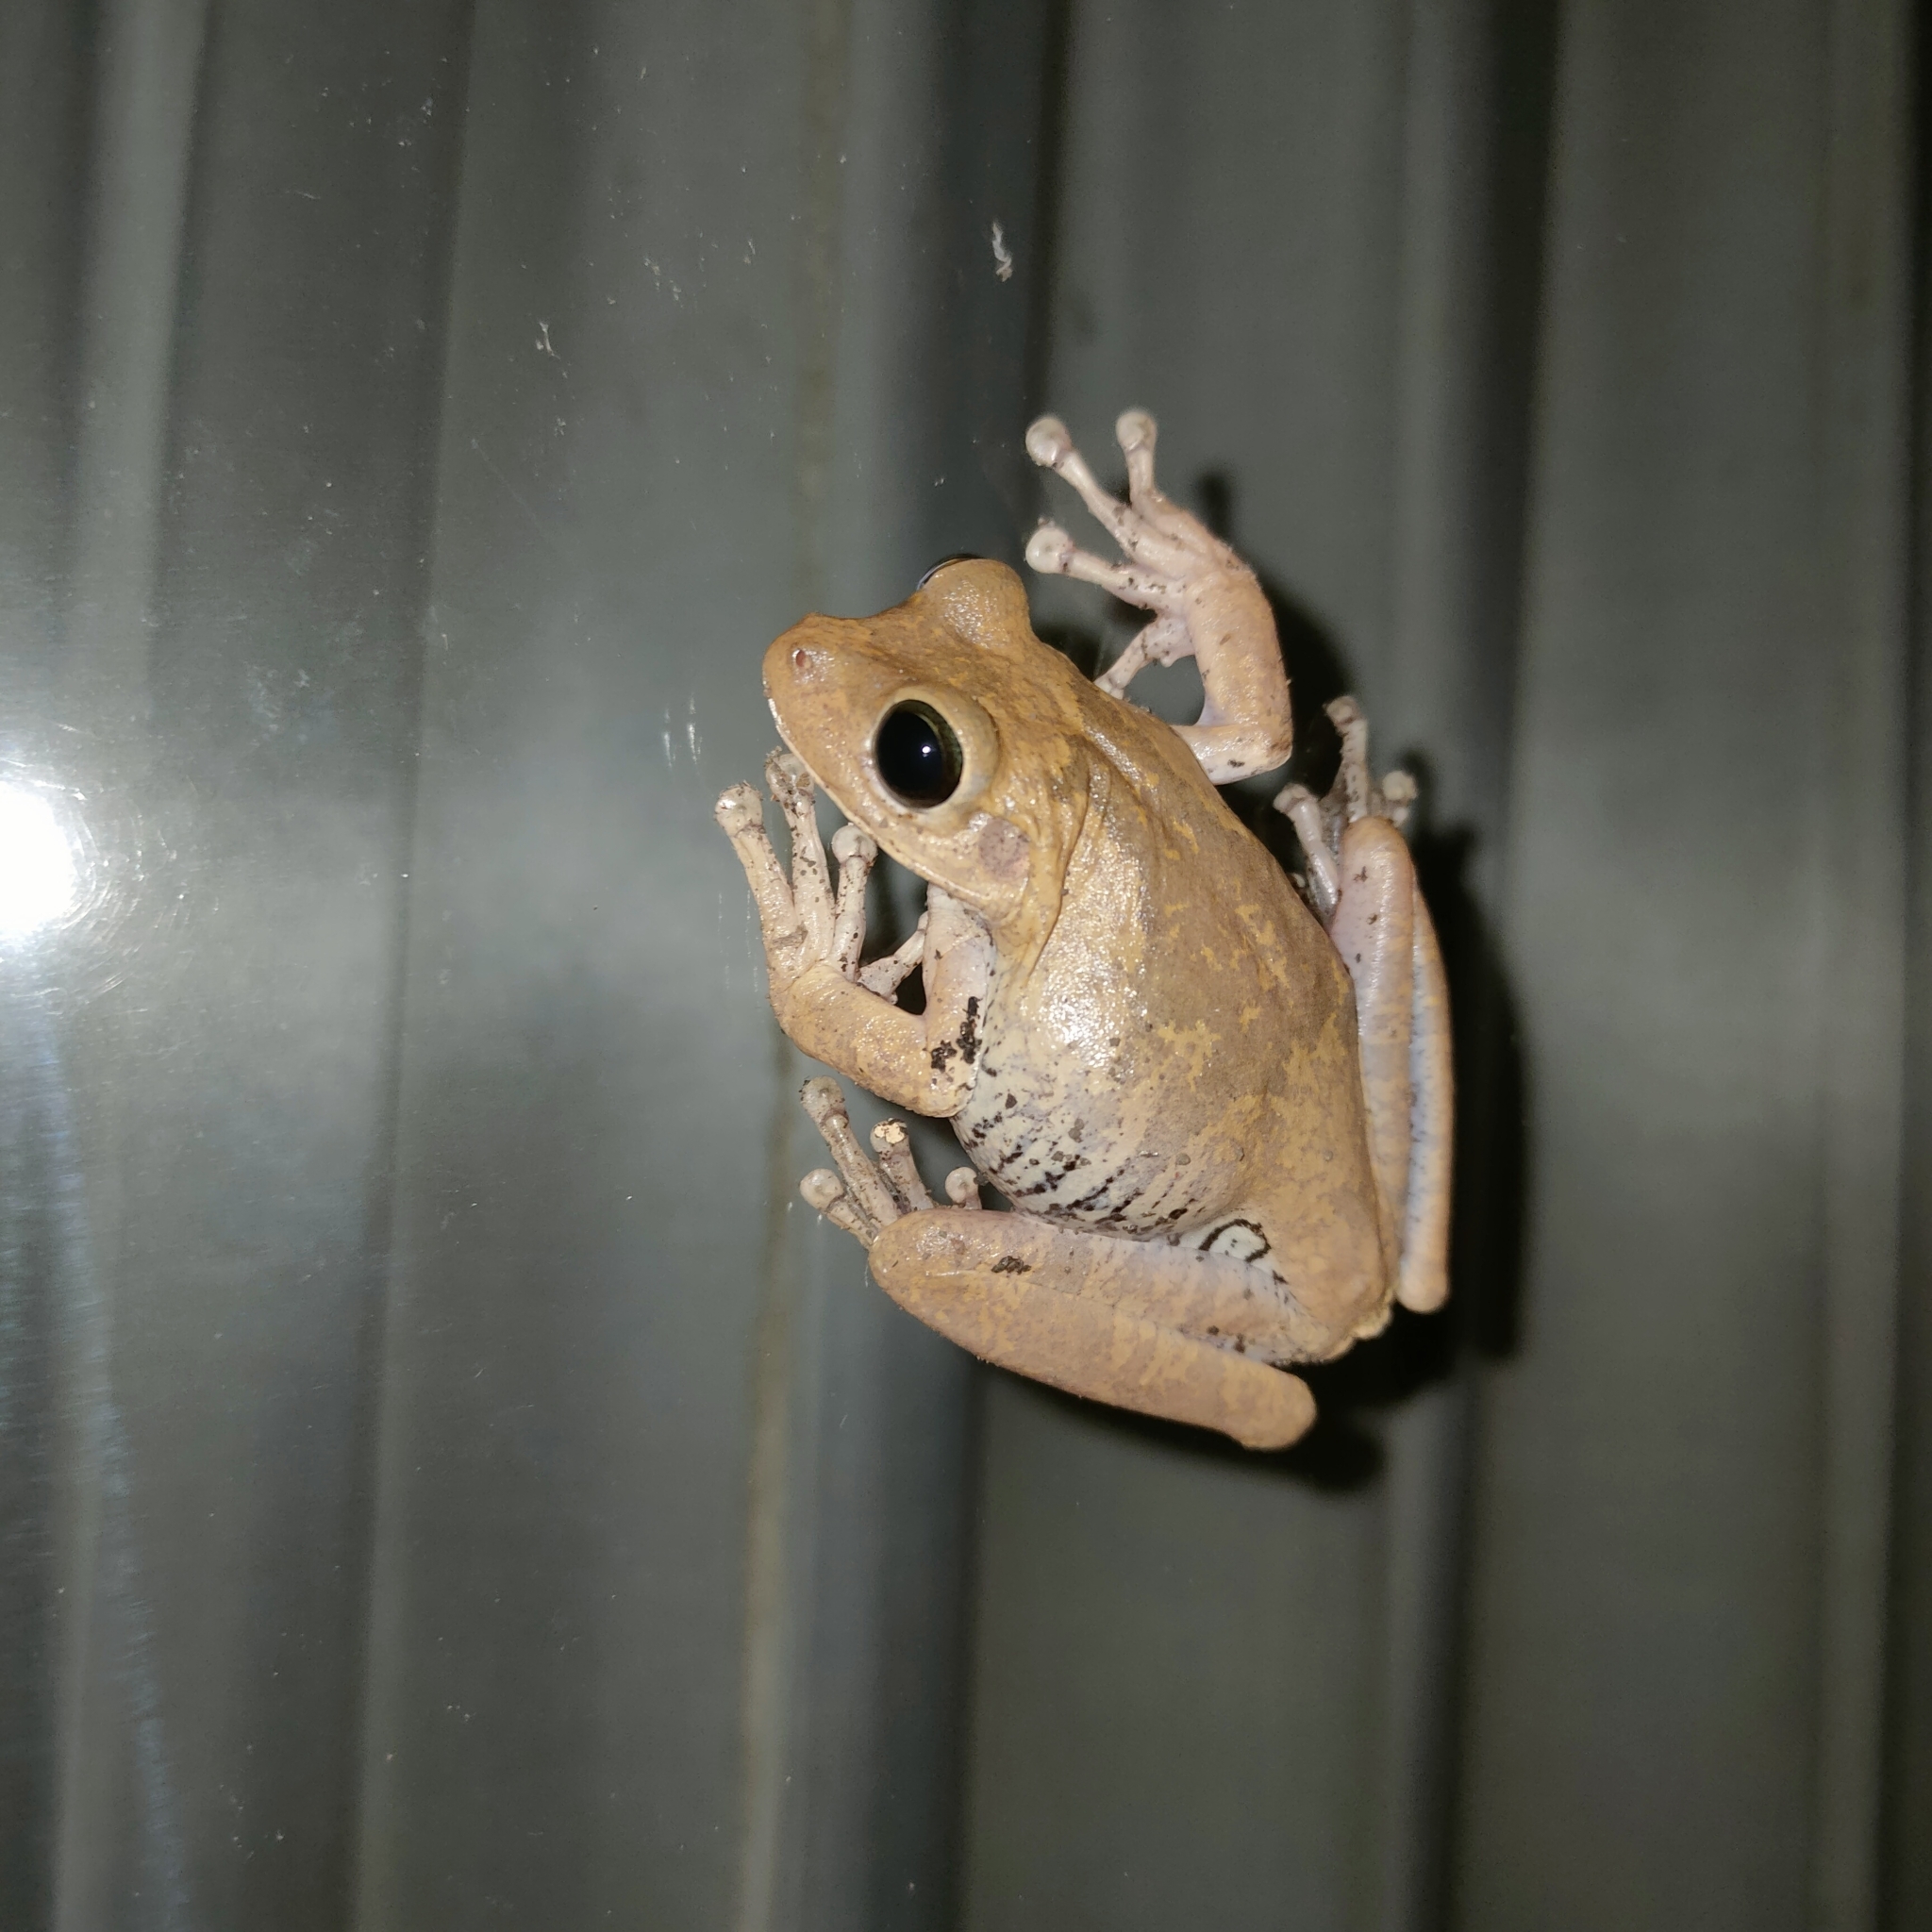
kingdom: Animalia
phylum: Chordata
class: Amphibia
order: Anura
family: Hylidae
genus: Boana
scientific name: Boana platanera
